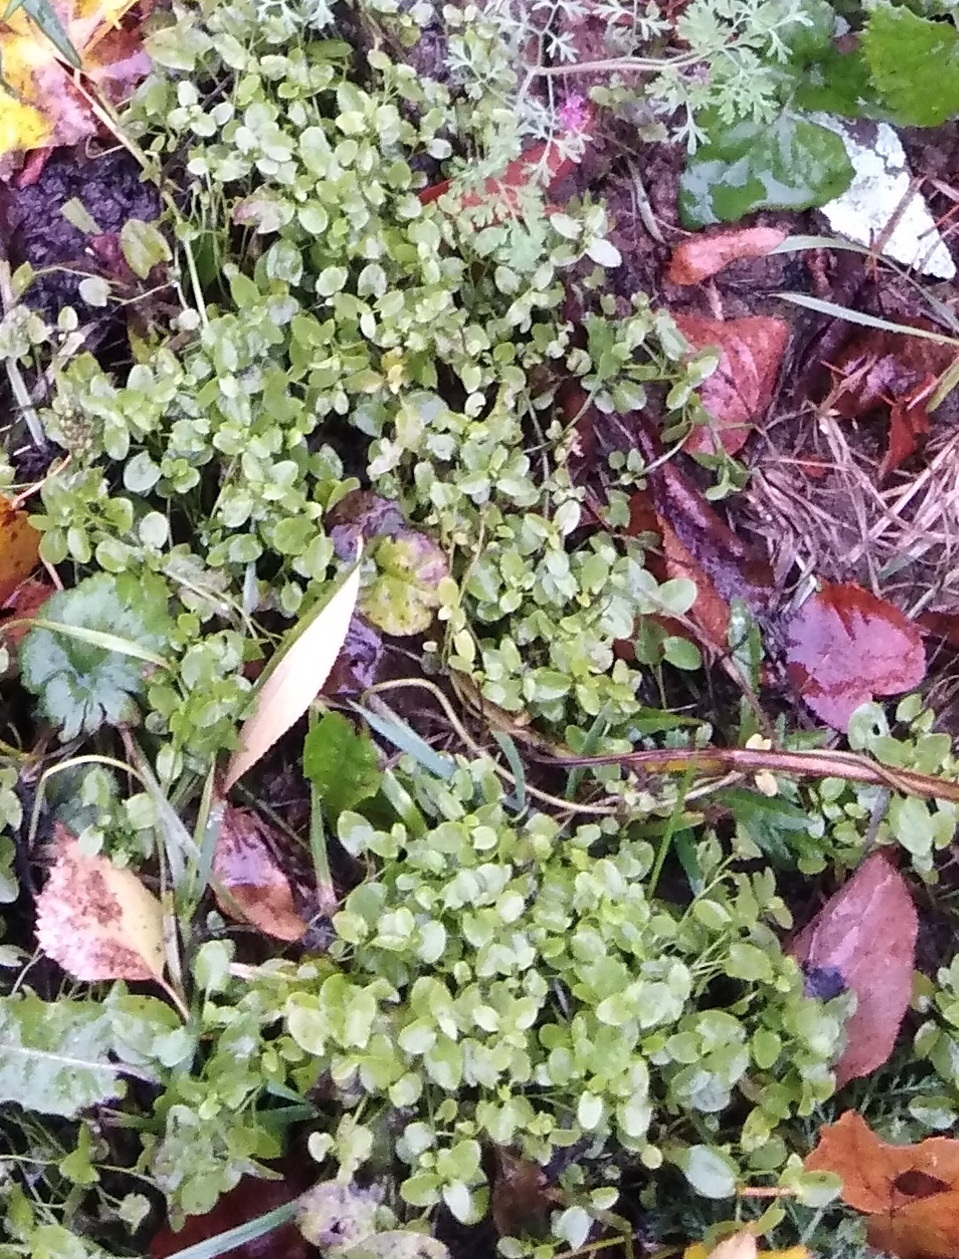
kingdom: Plantae
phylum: Tracheophyta
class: Magnoliopsida
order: Caryophyllales
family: Caryophyllaceae
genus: Stellaria
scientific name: Stellaria media
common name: Common chickweed
